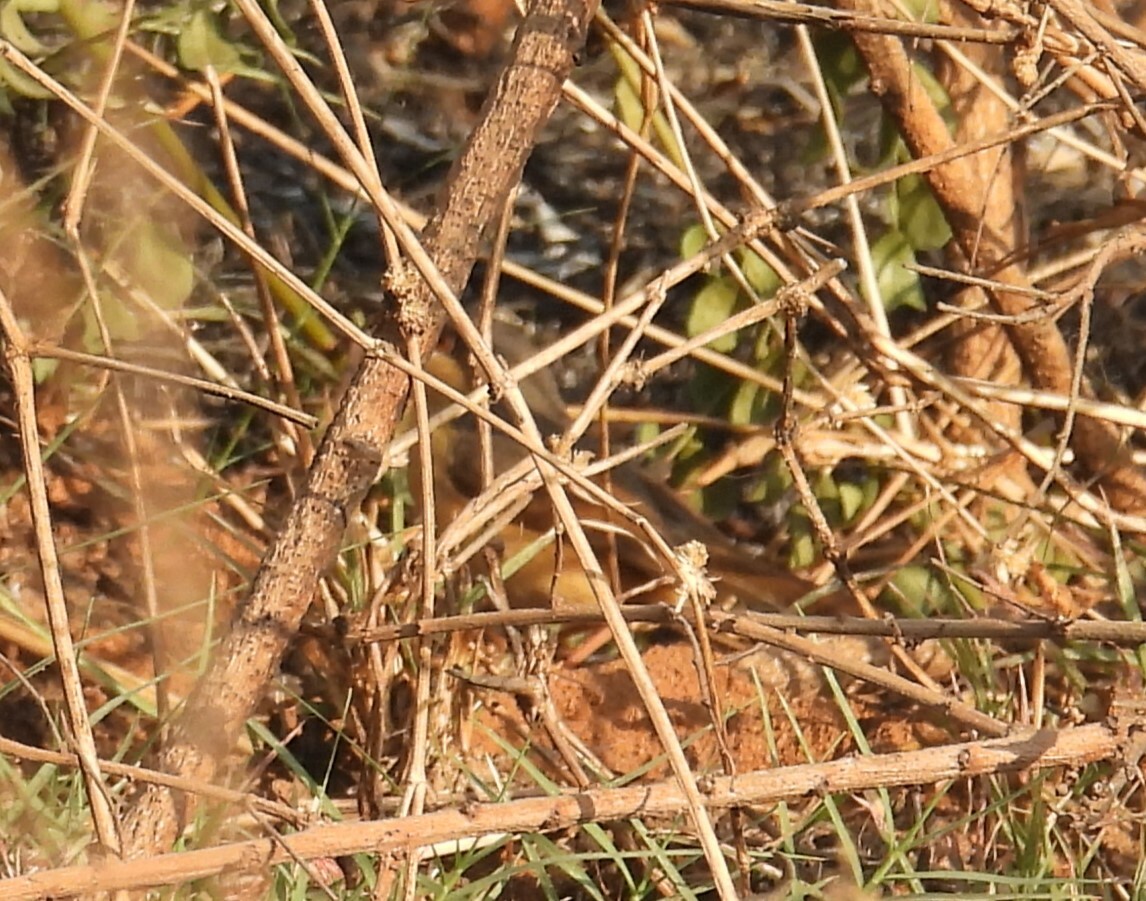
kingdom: Animalia
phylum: Chordata
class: Aves
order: Passeriformes
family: Cisticolidae
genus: Prinia
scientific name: Prinia socialis
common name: Ashy prinia
